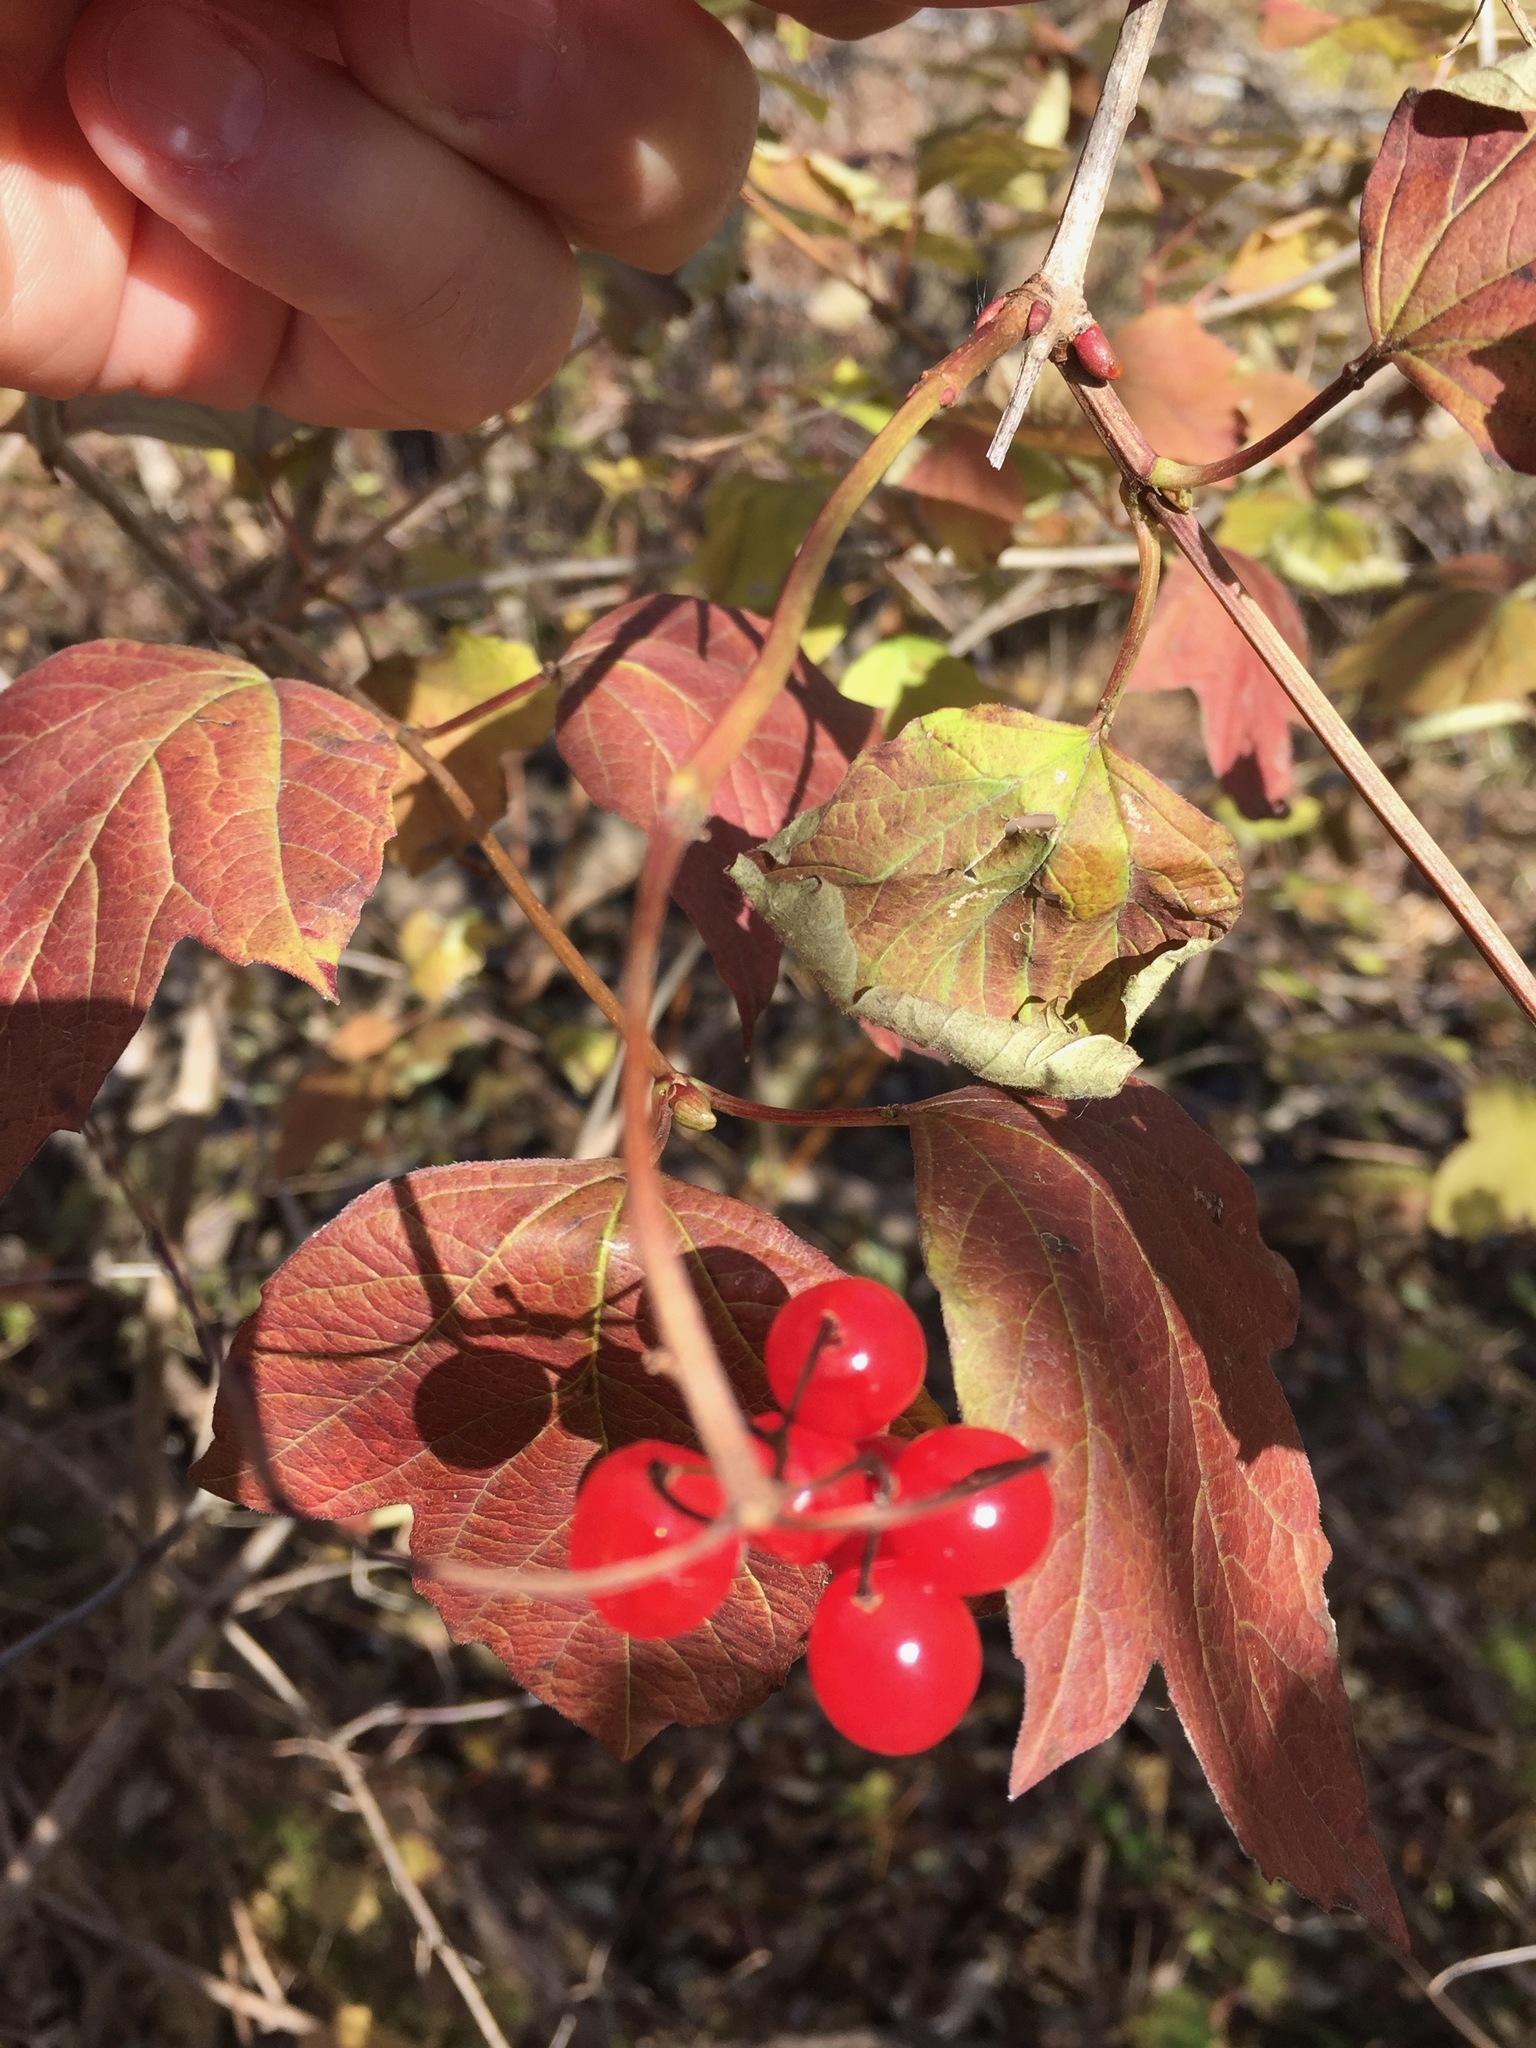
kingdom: Plantae
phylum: Tracheophyta
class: Magnoliopsida
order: Dipsacales
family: Viburnaceae
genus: Viburnum
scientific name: Viburnum opulus
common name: Guelder-rose
